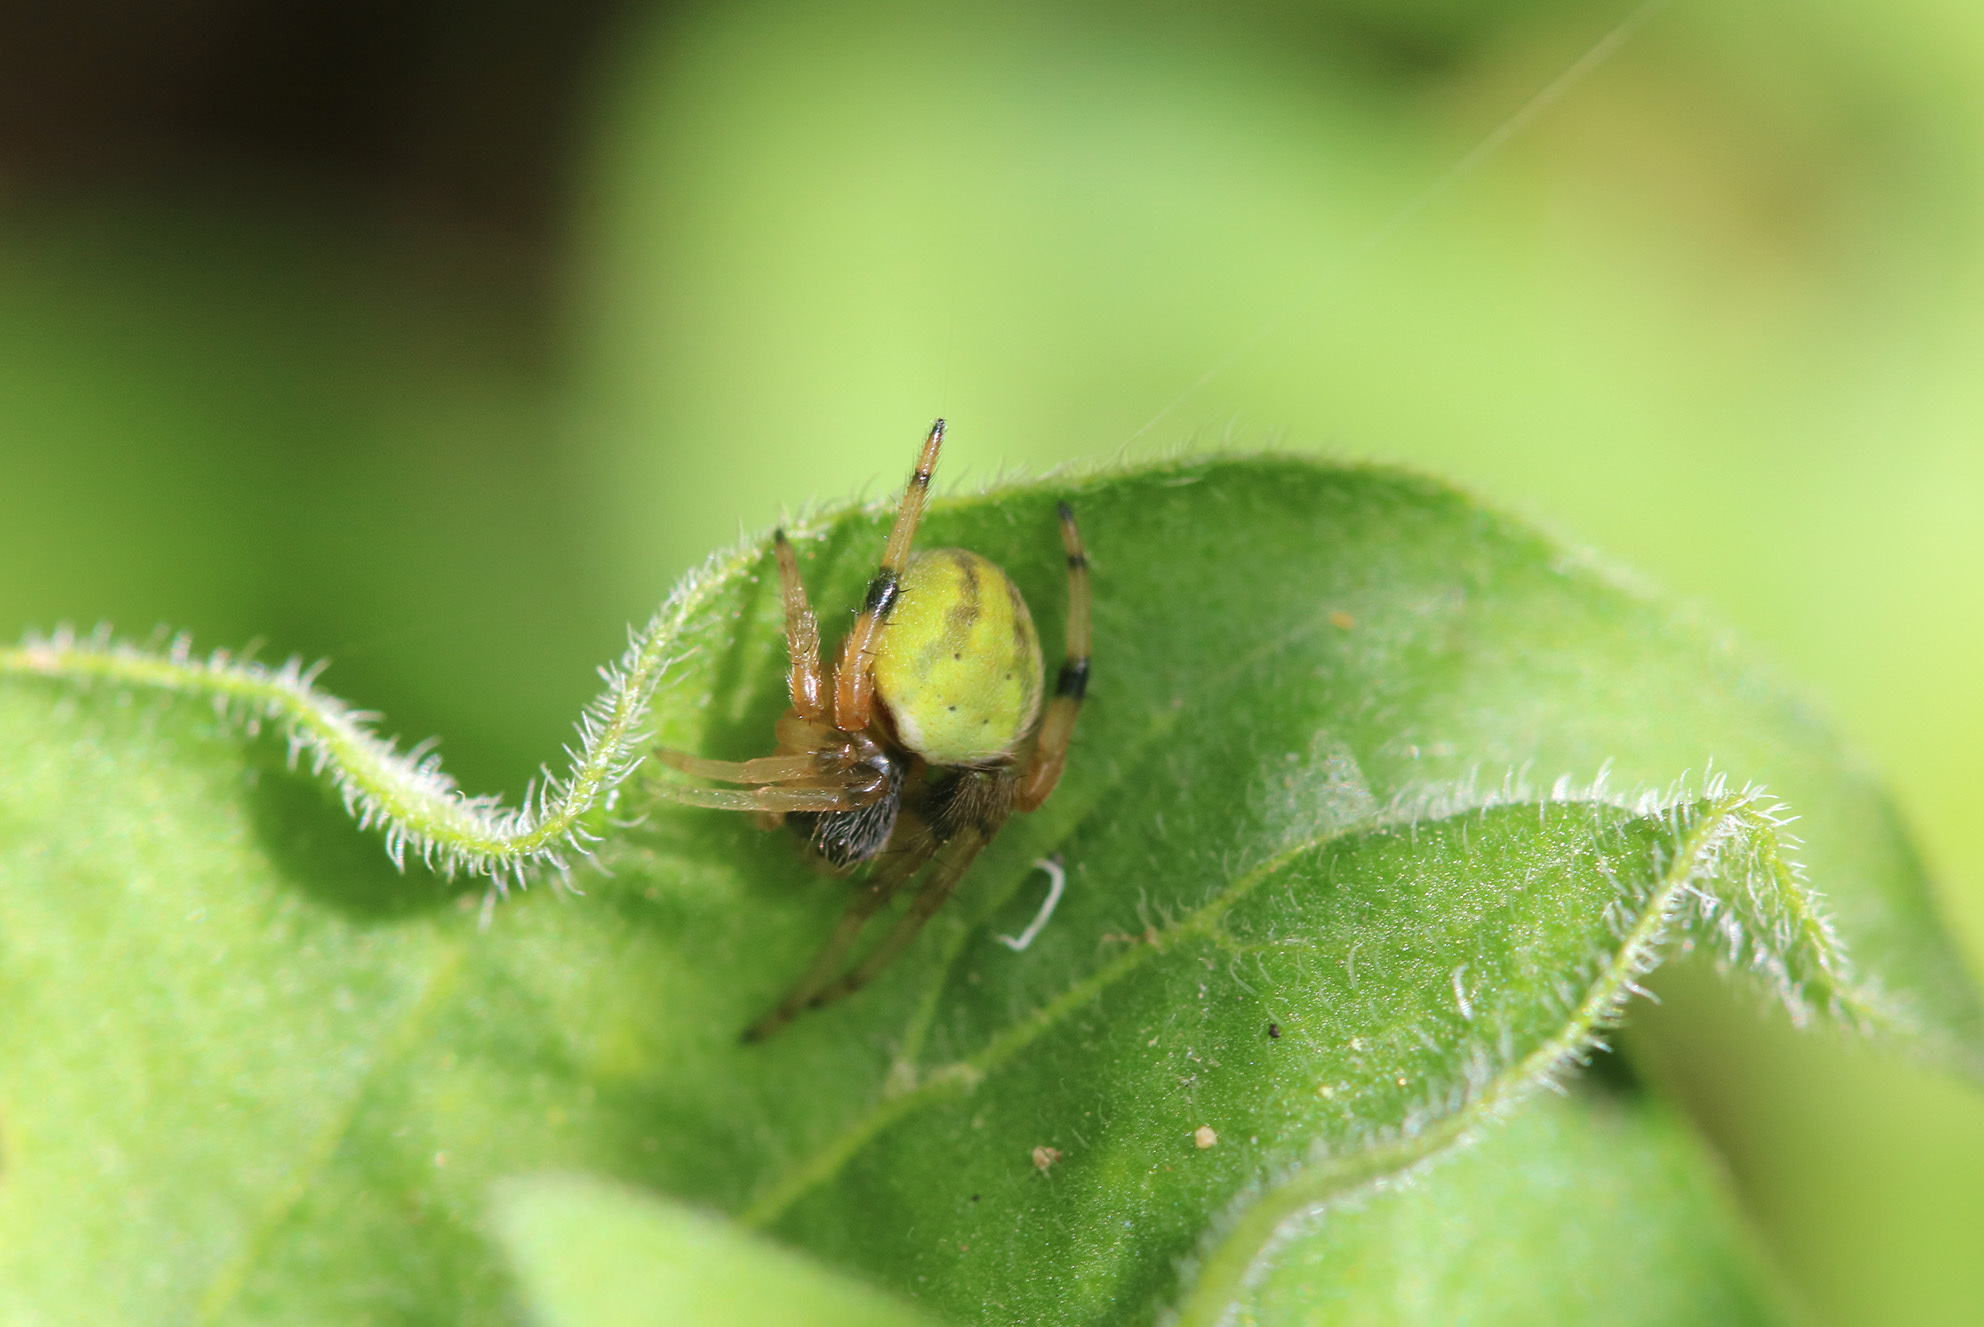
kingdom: Animalia
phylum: Arthropoda
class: Arachnida
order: Araneae
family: Araneidae
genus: Araneus
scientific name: Araneus lathyrinus
